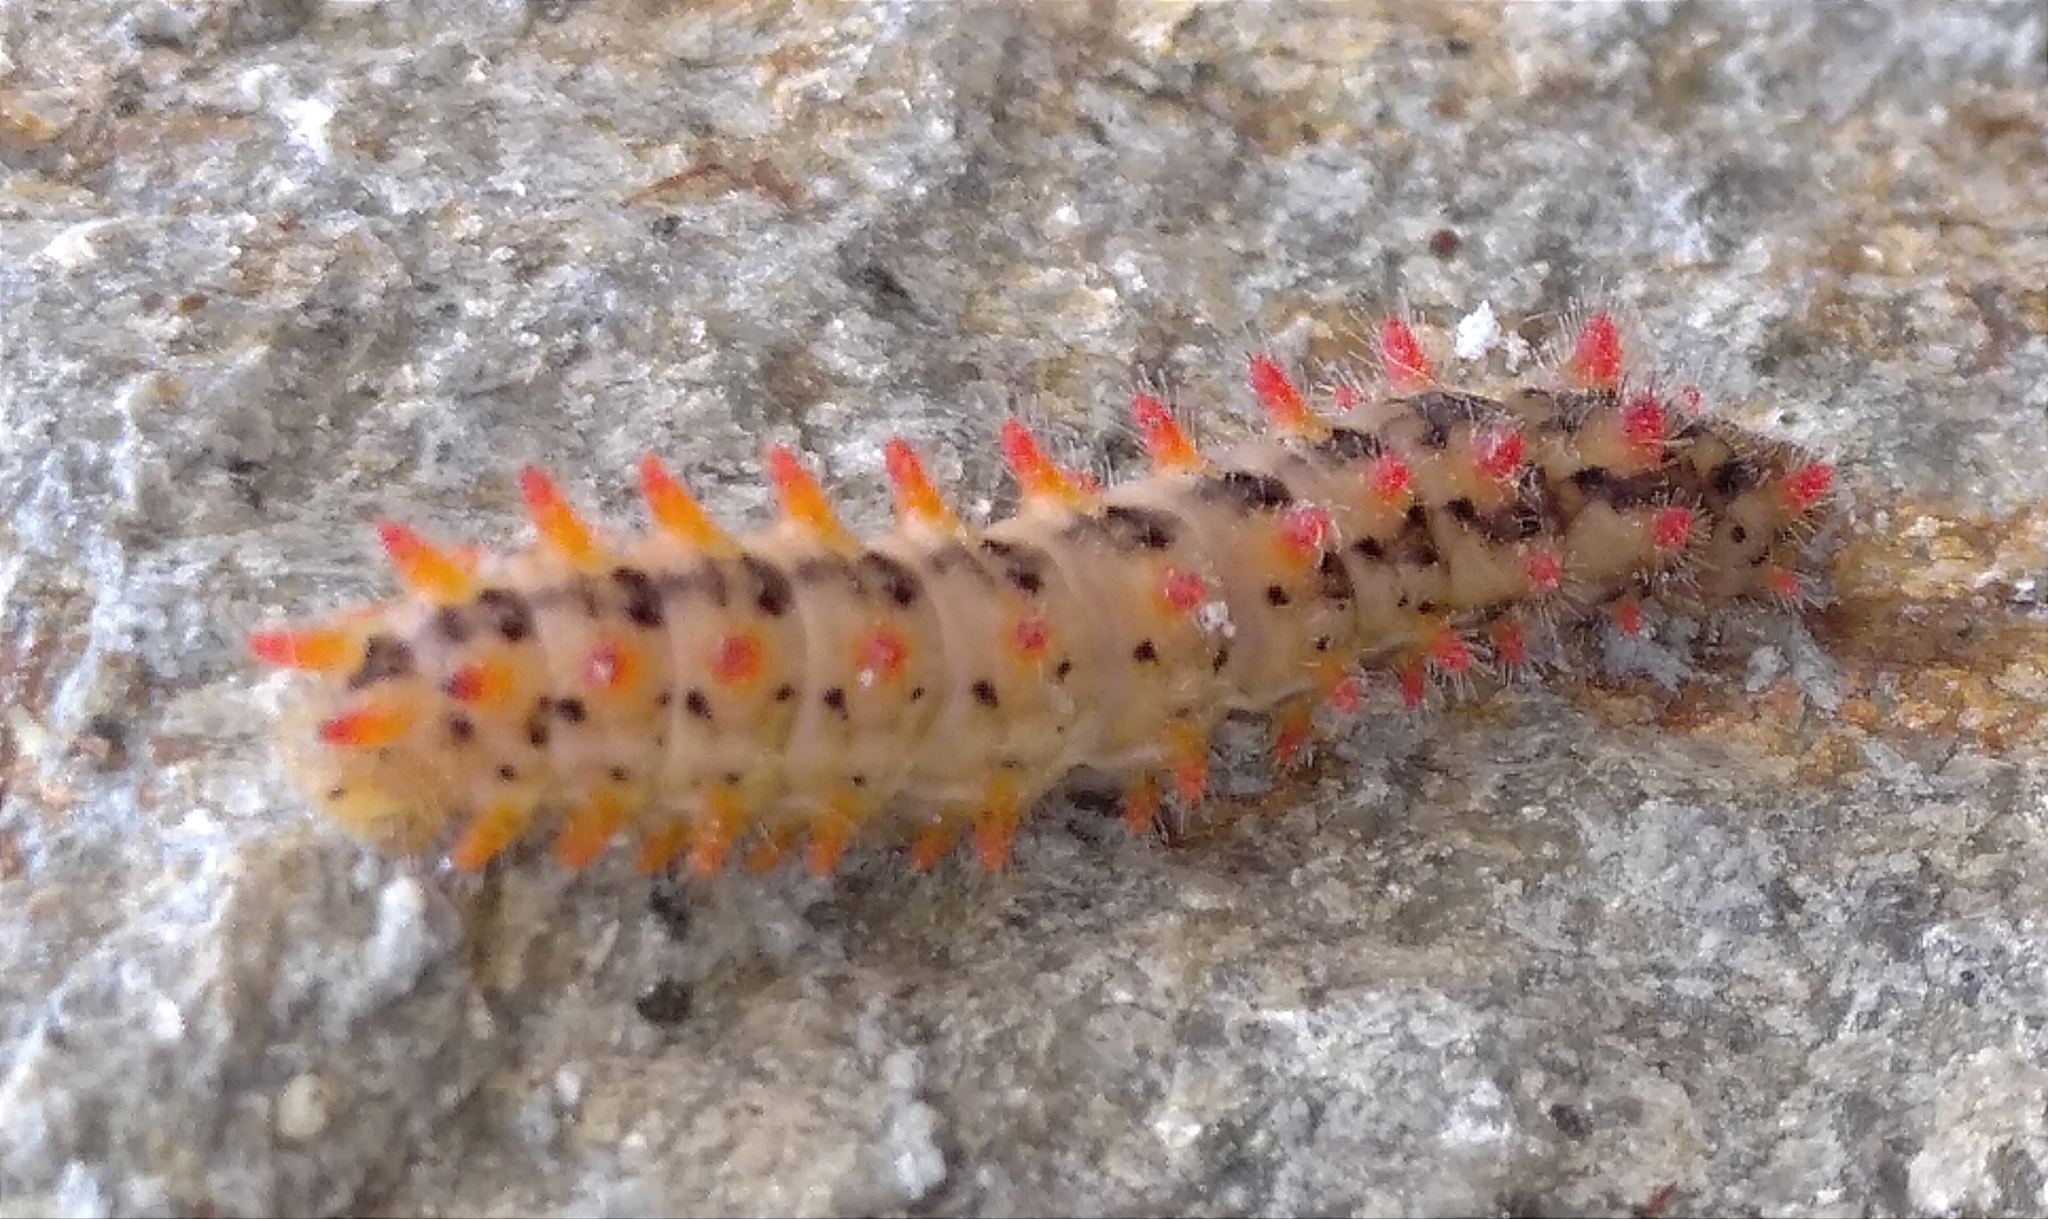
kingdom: Animalia
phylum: Arthropoda
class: Insecta
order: Lepidoptera
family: Papilionidae
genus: Zerynthia
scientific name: Zerynthia cerisy
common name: Eastern festoon
